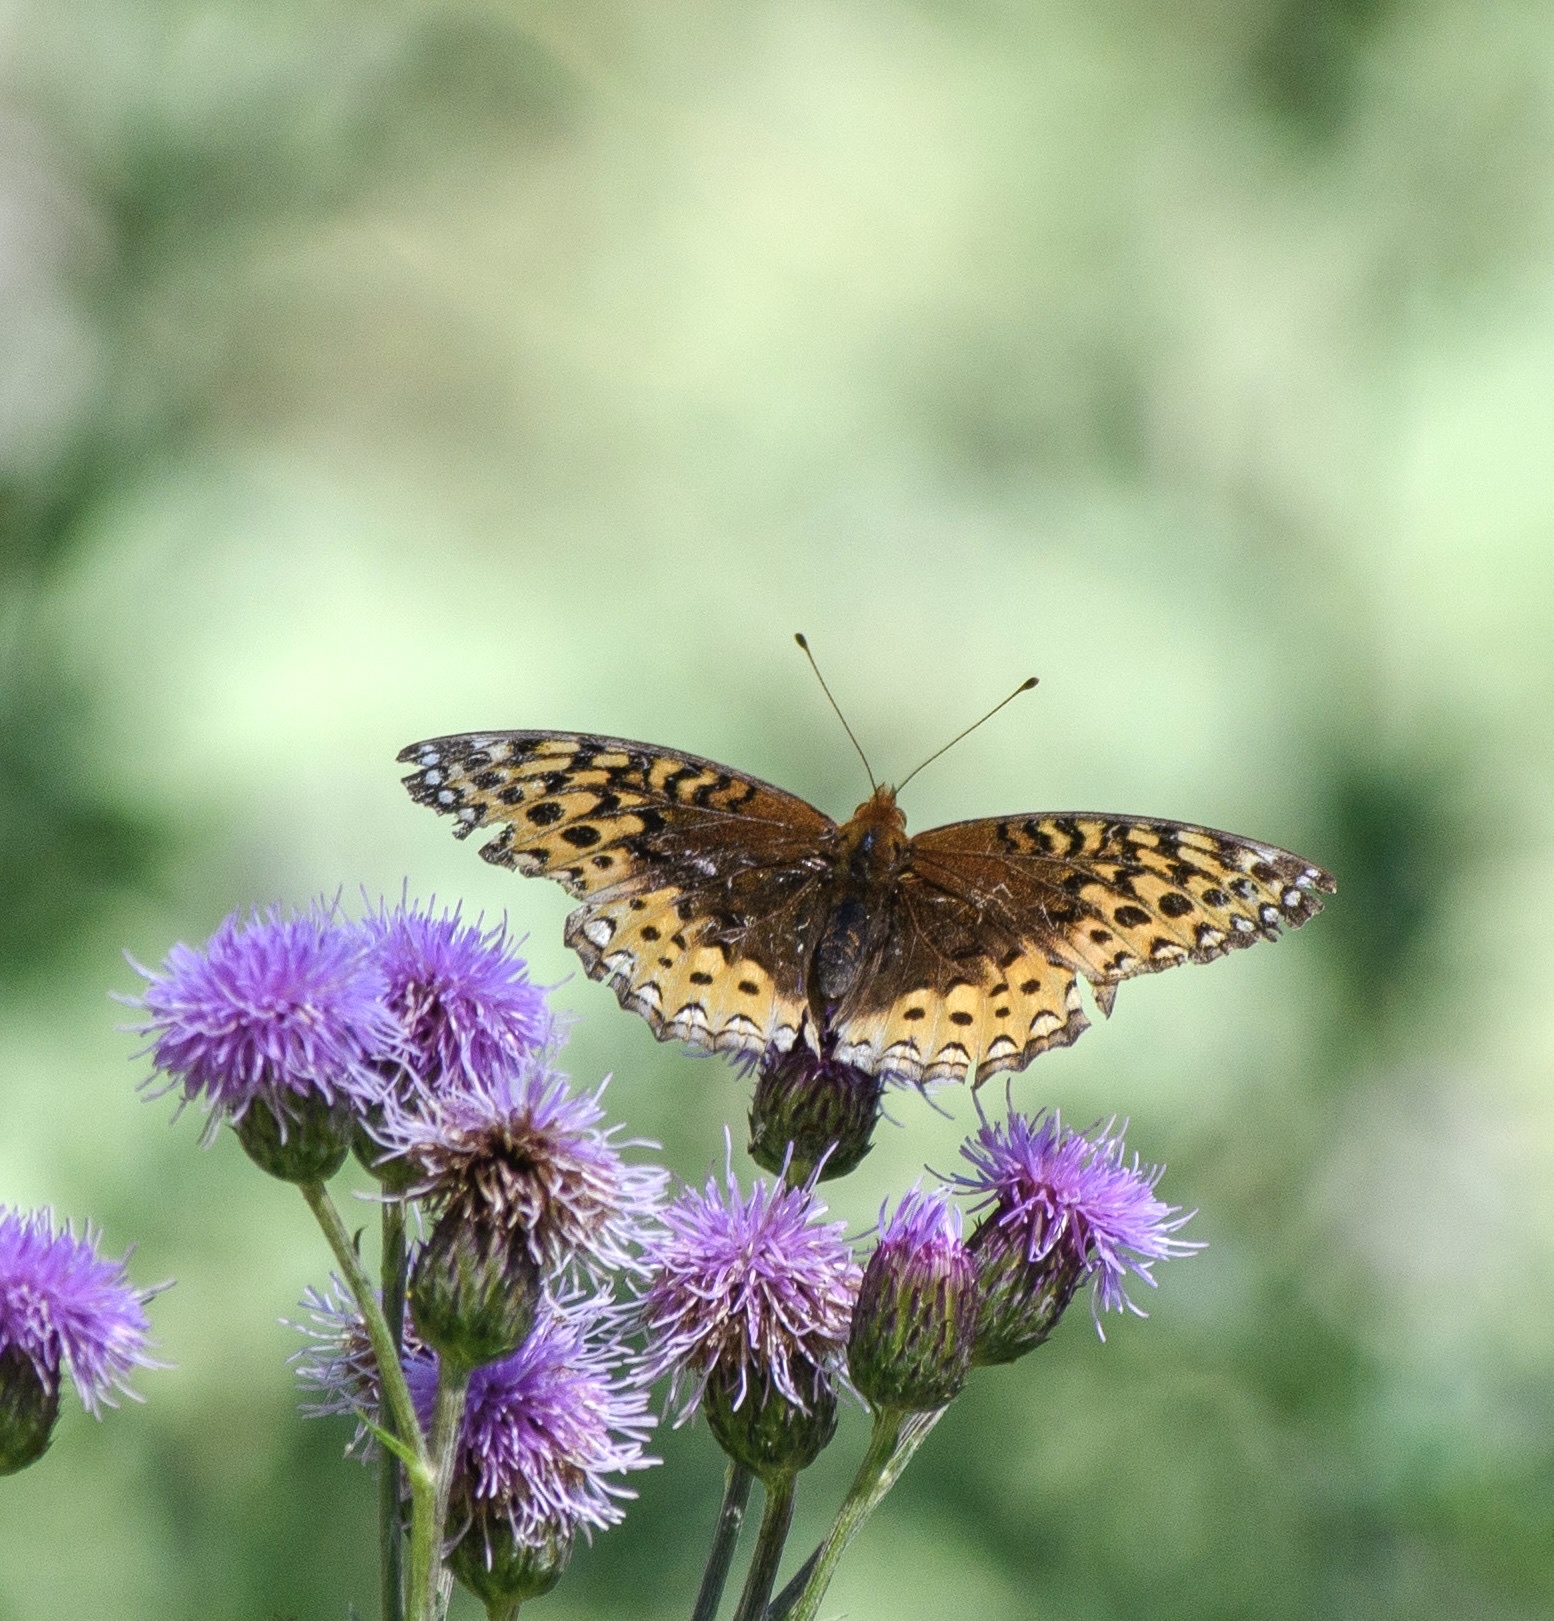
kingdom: Animalia
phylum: Arthropoda
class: Insecta
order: Lepidoptera
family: Nymphalidae
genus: Speyeria
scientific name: Speyeria cybele
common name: Great spangled fritillary
